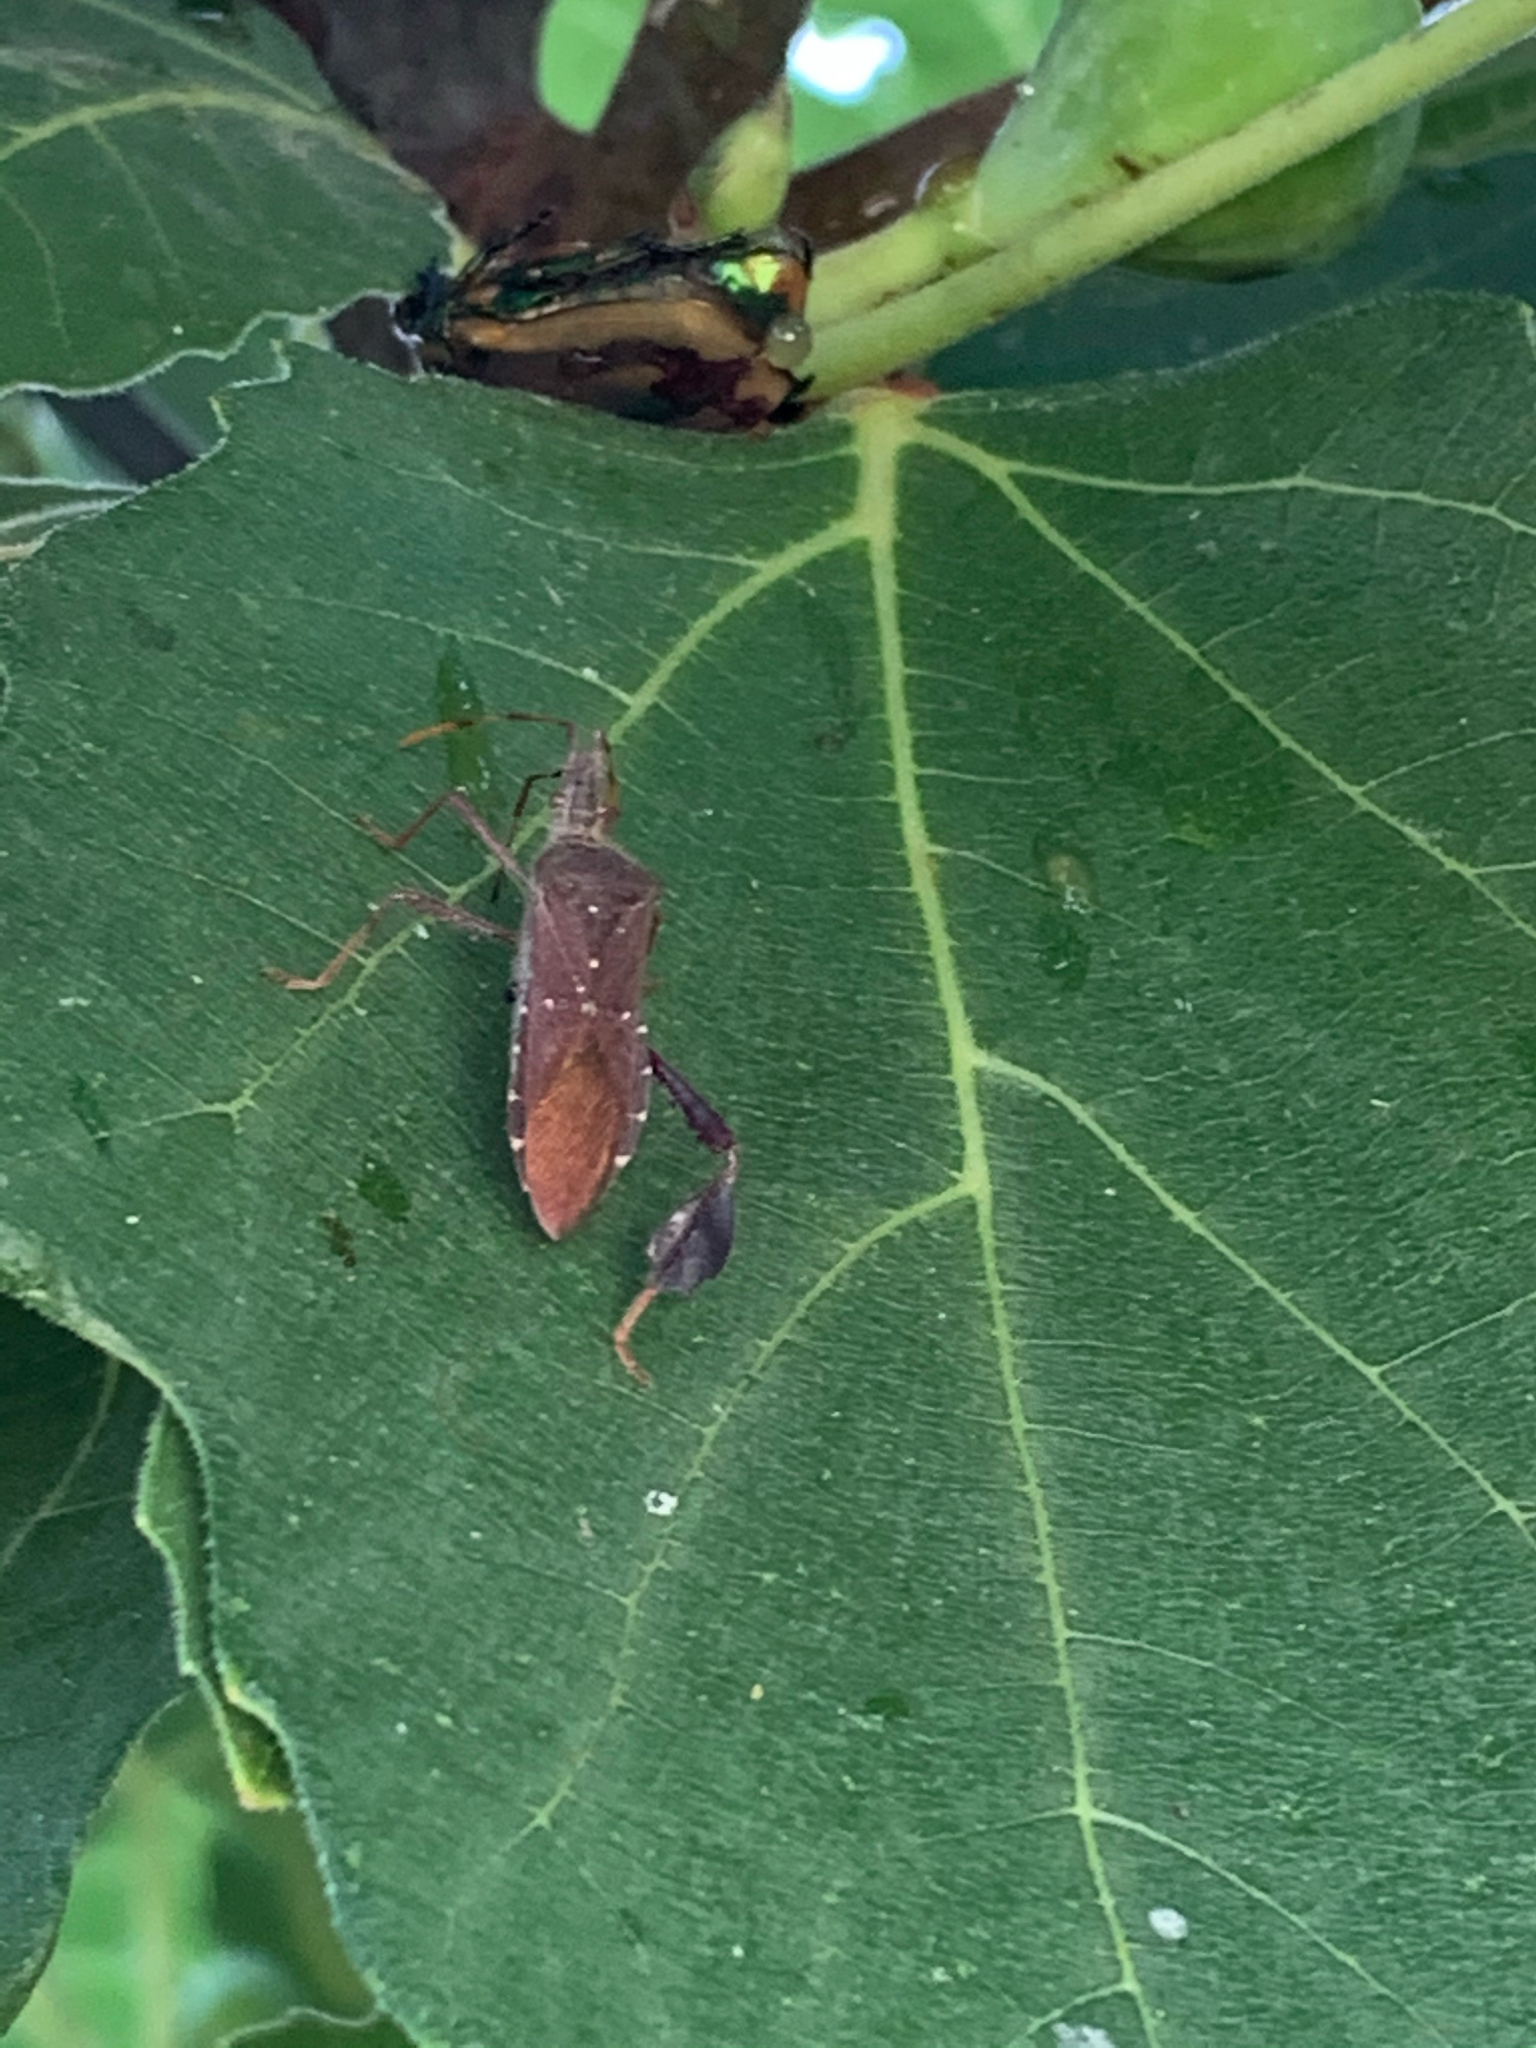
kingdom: Animalia
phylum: Arthropoda
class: Insecta
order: Hemiptera
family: Coreidae
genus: Leptoglossus
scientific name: Leptoglossus oppositus
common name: Northern leaf-footed bug
